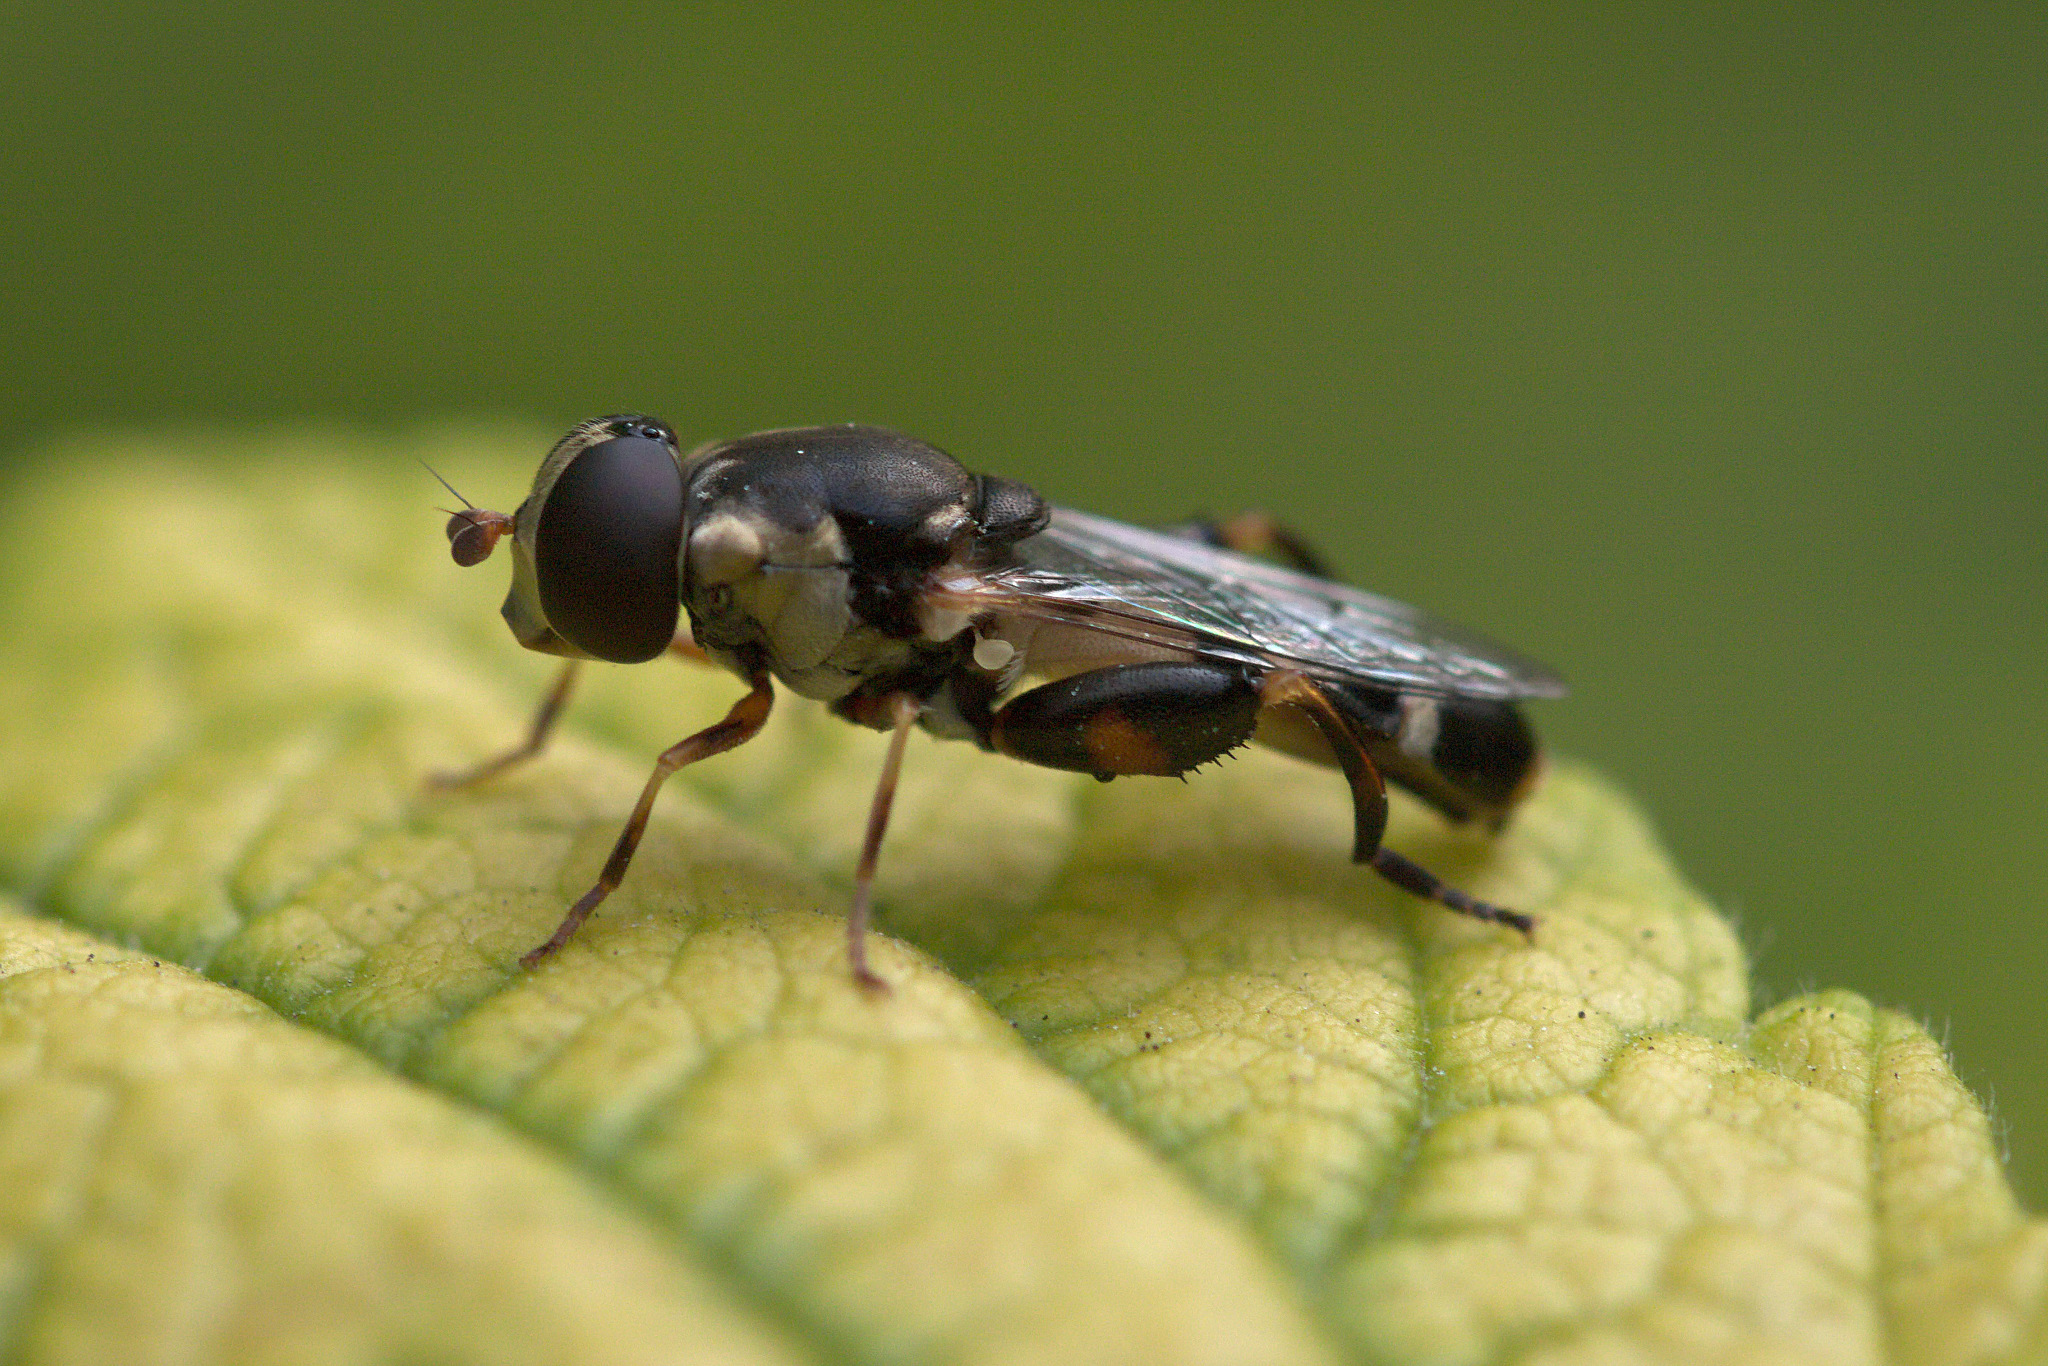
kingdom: Animalia
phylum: Arthropoda
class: Insecta
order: Diptera
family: Syrphidae
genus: Syritta
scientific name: Syritta pipiens
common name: Hover fly
